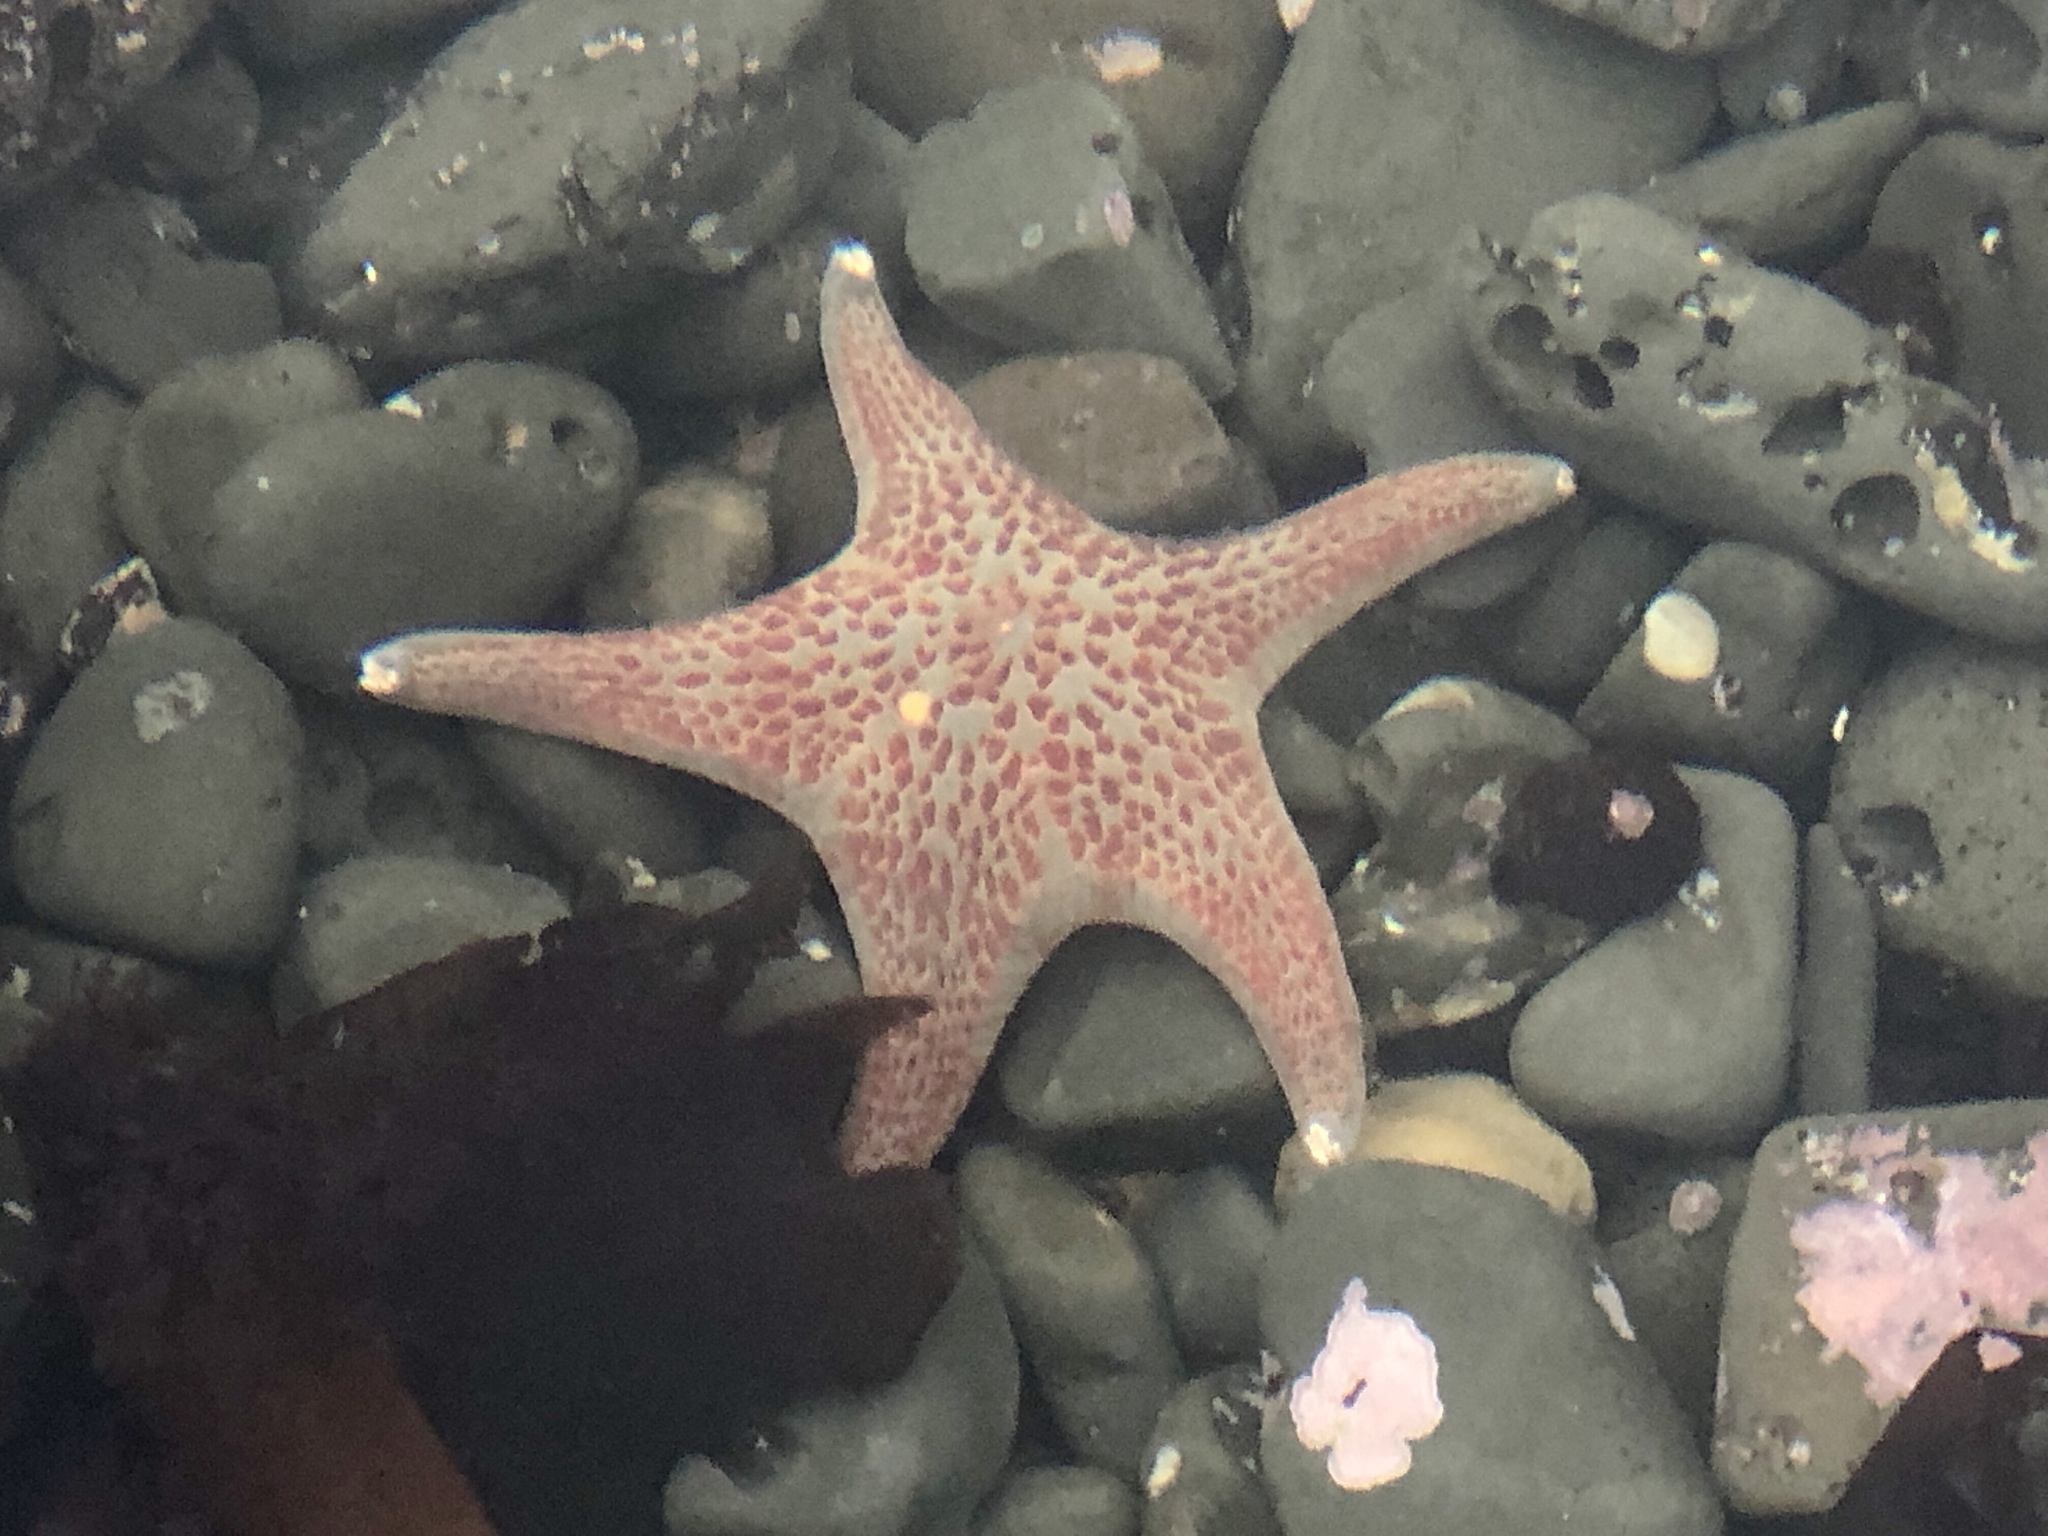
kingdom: Animalia
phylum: Echinodermata
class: Asteroidea
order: Valvatida
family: Asteropseidae
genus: Dermasterias
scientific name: Dermasterias imbricata
